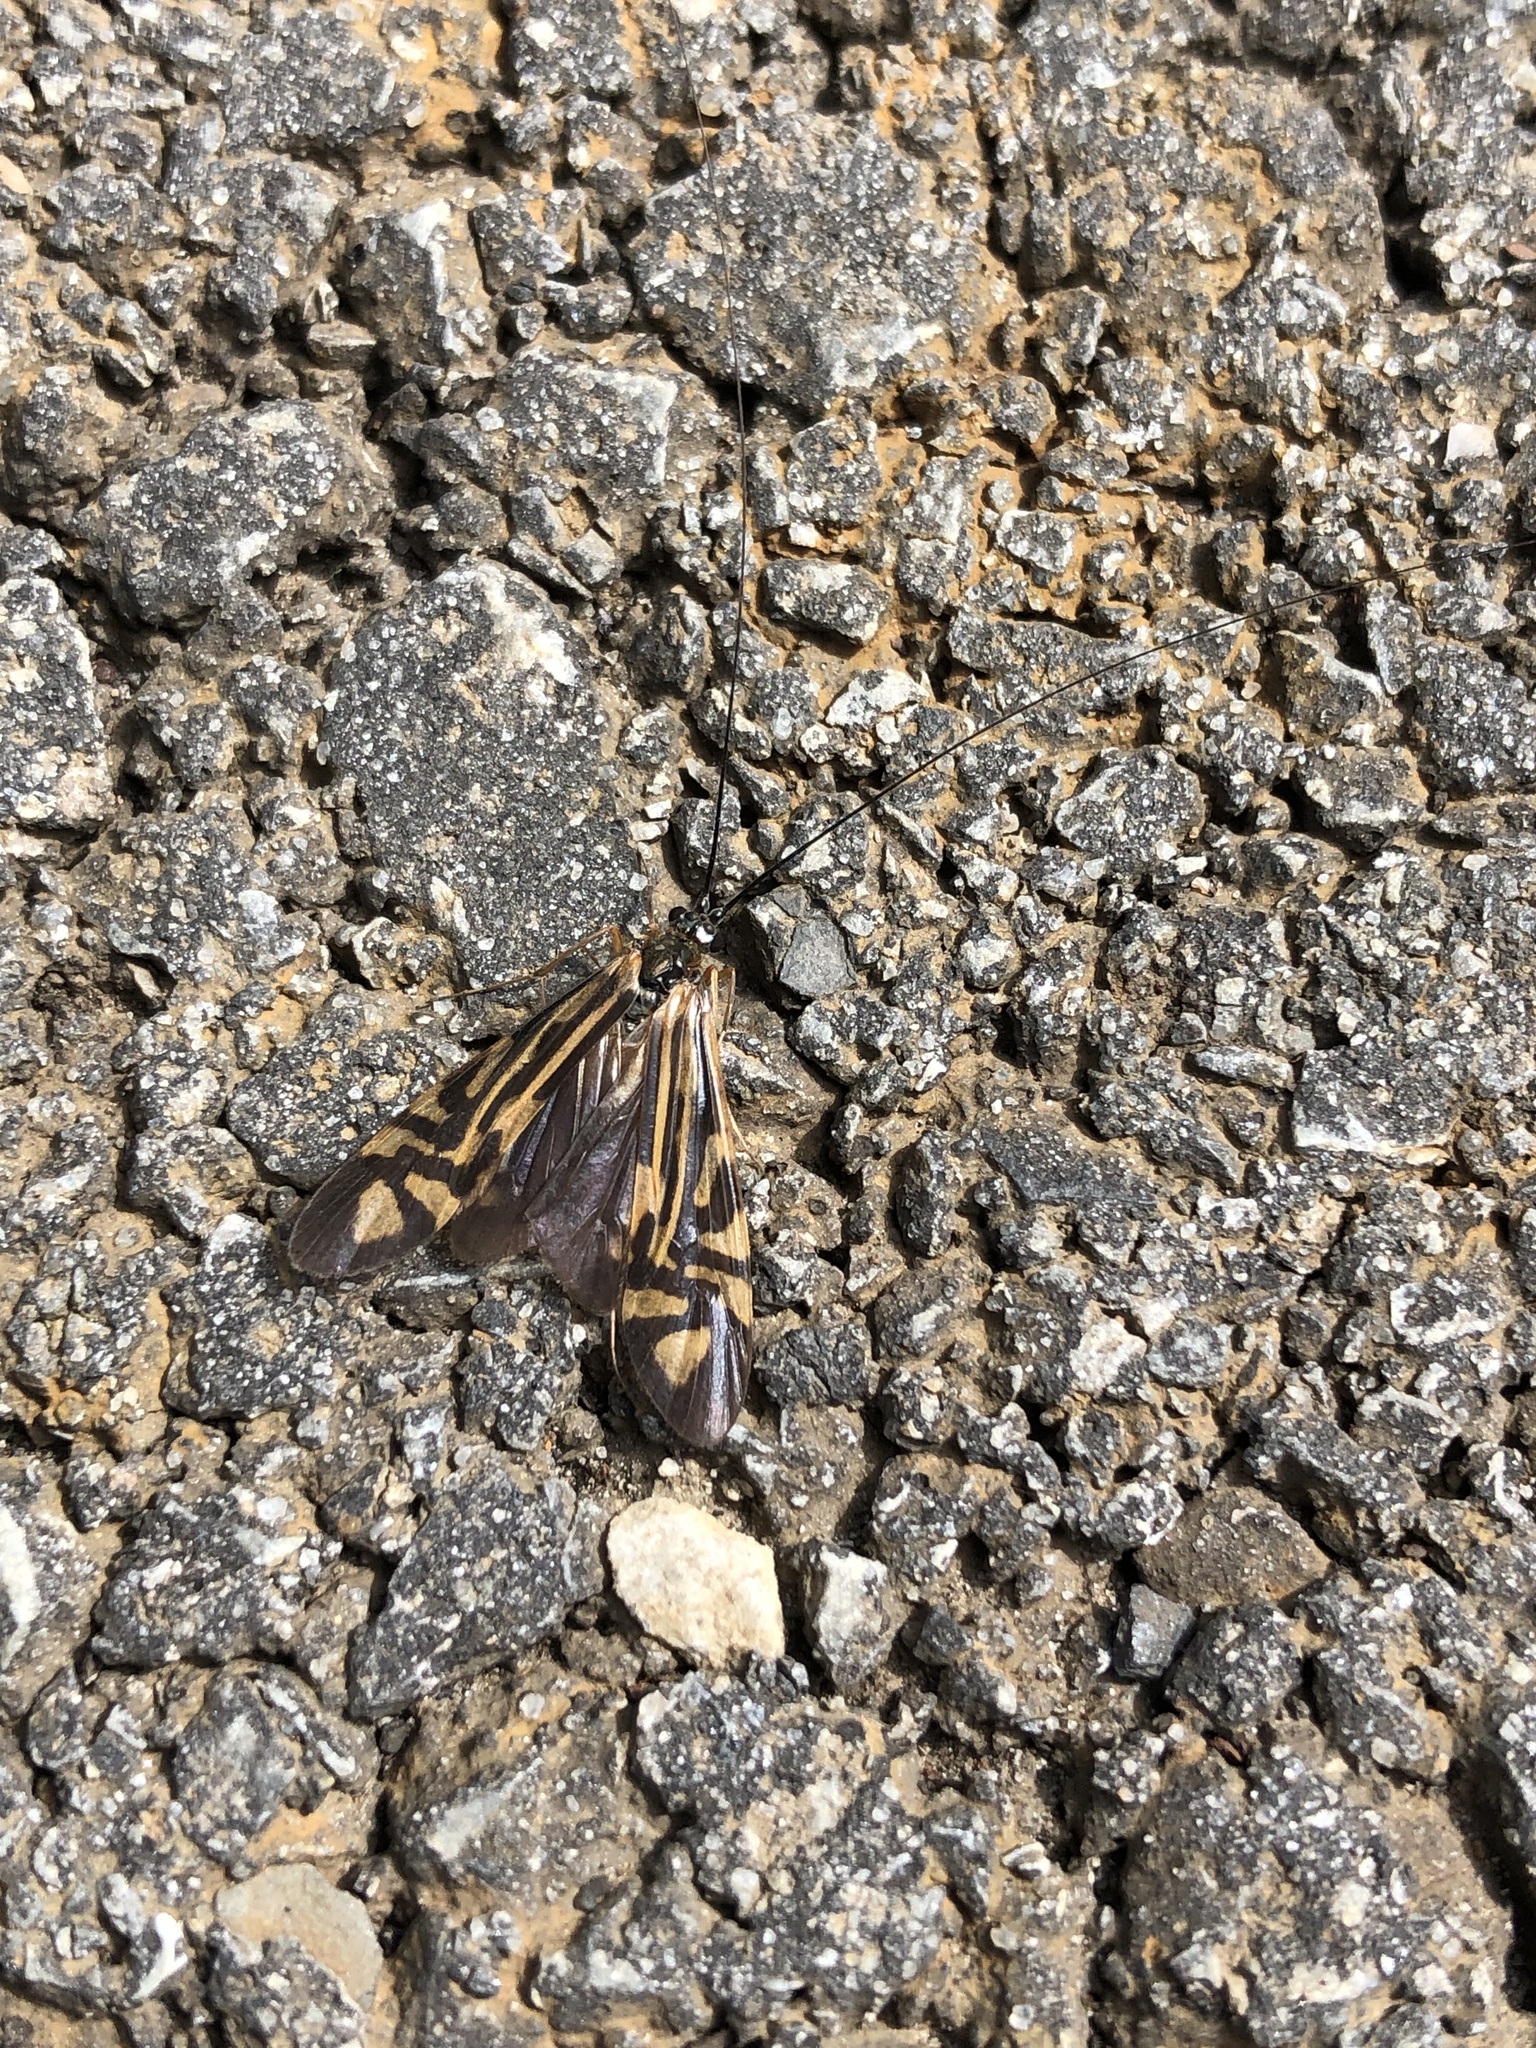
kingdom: Animalia
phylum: Arthropoda
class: Insecta
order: Trichoptera
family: Hydropsychidae
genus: Macrostemum
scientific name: Macrostemum zebratum
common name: Zebra caddisfly
